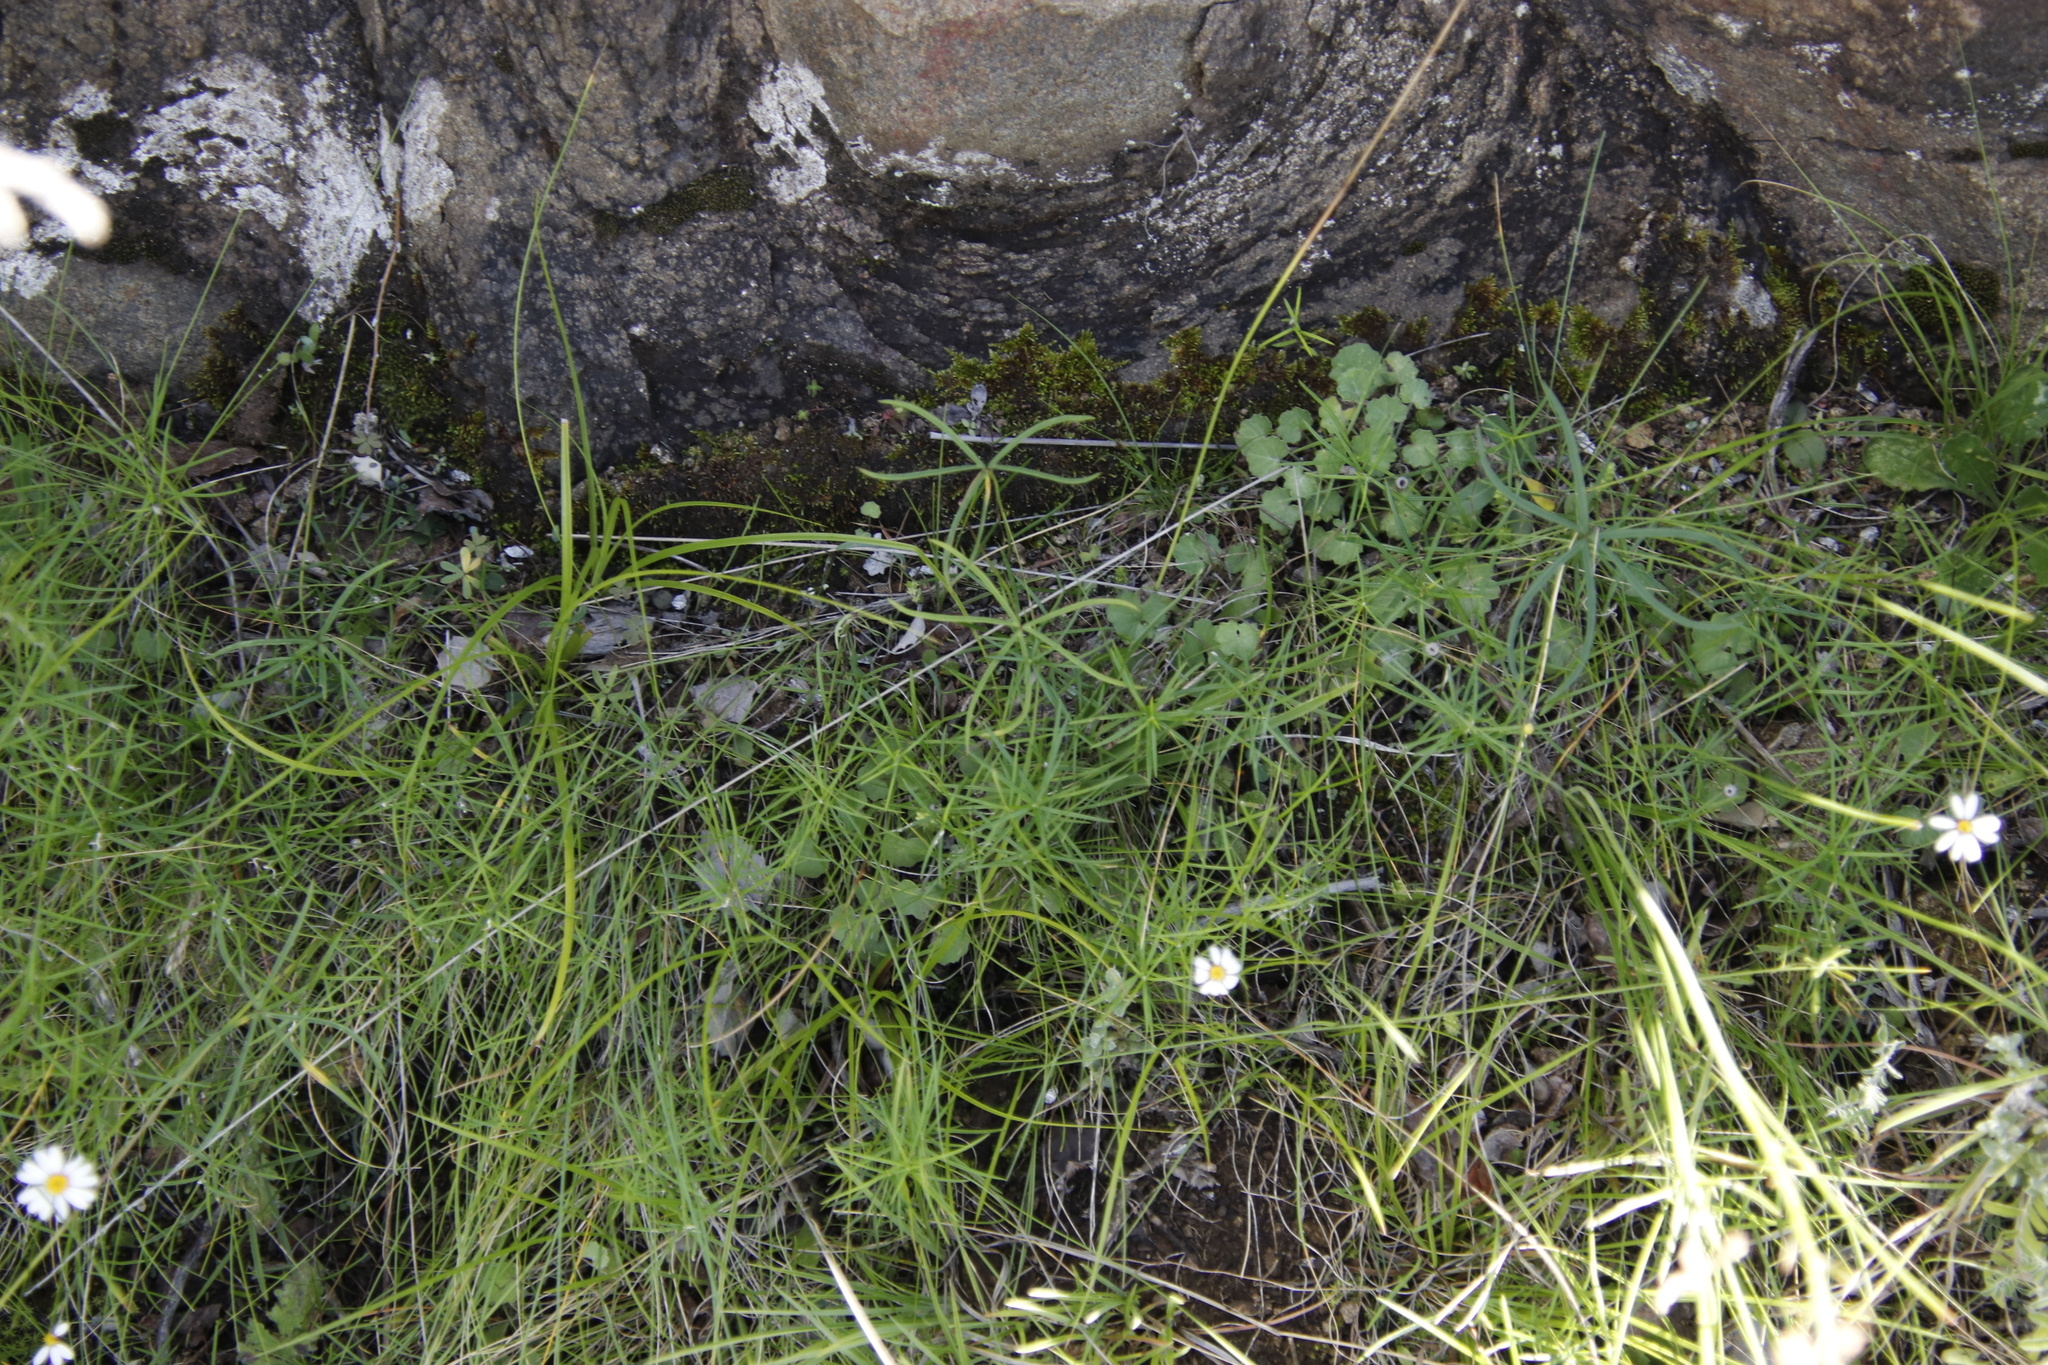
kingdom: Plantae
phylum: Tracheophyta
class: Magnoliopsida
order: Oxalidales
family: Oxalidaceae
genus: Oxalis
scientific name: Oxalis smithiana
